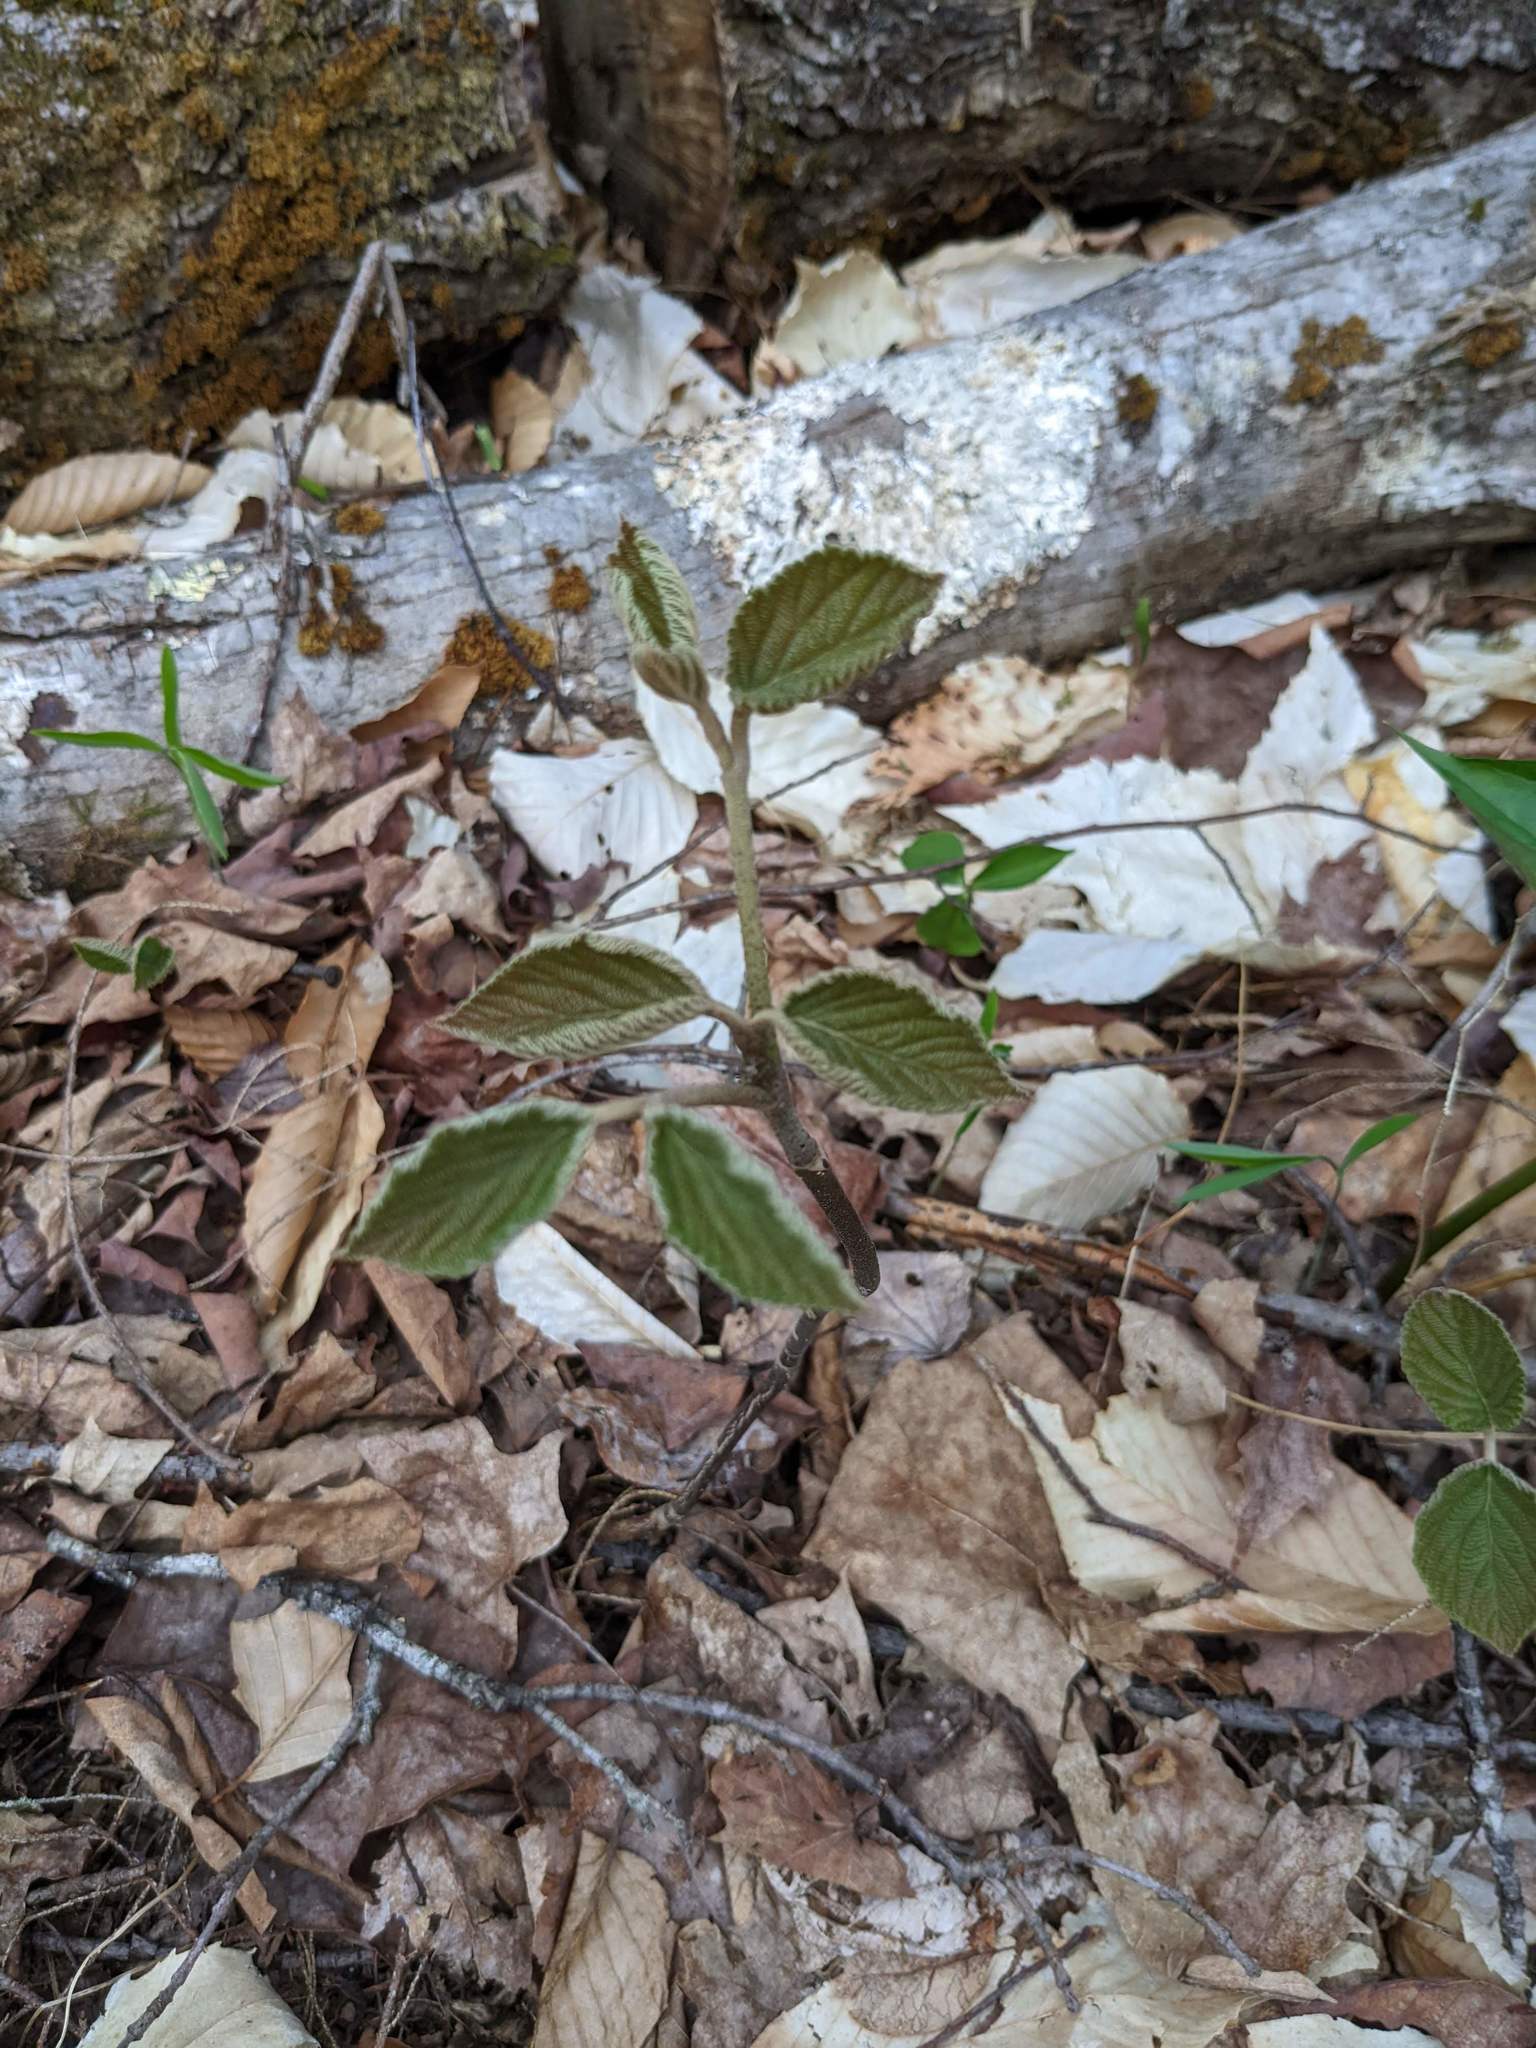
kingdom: Plantae
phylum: Tracheophyta
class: Magnoliopsida
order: Dipsacales
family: Viburnaceae
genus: Viburnum
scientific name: Viburnum lantanoides
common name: Hobblebush
